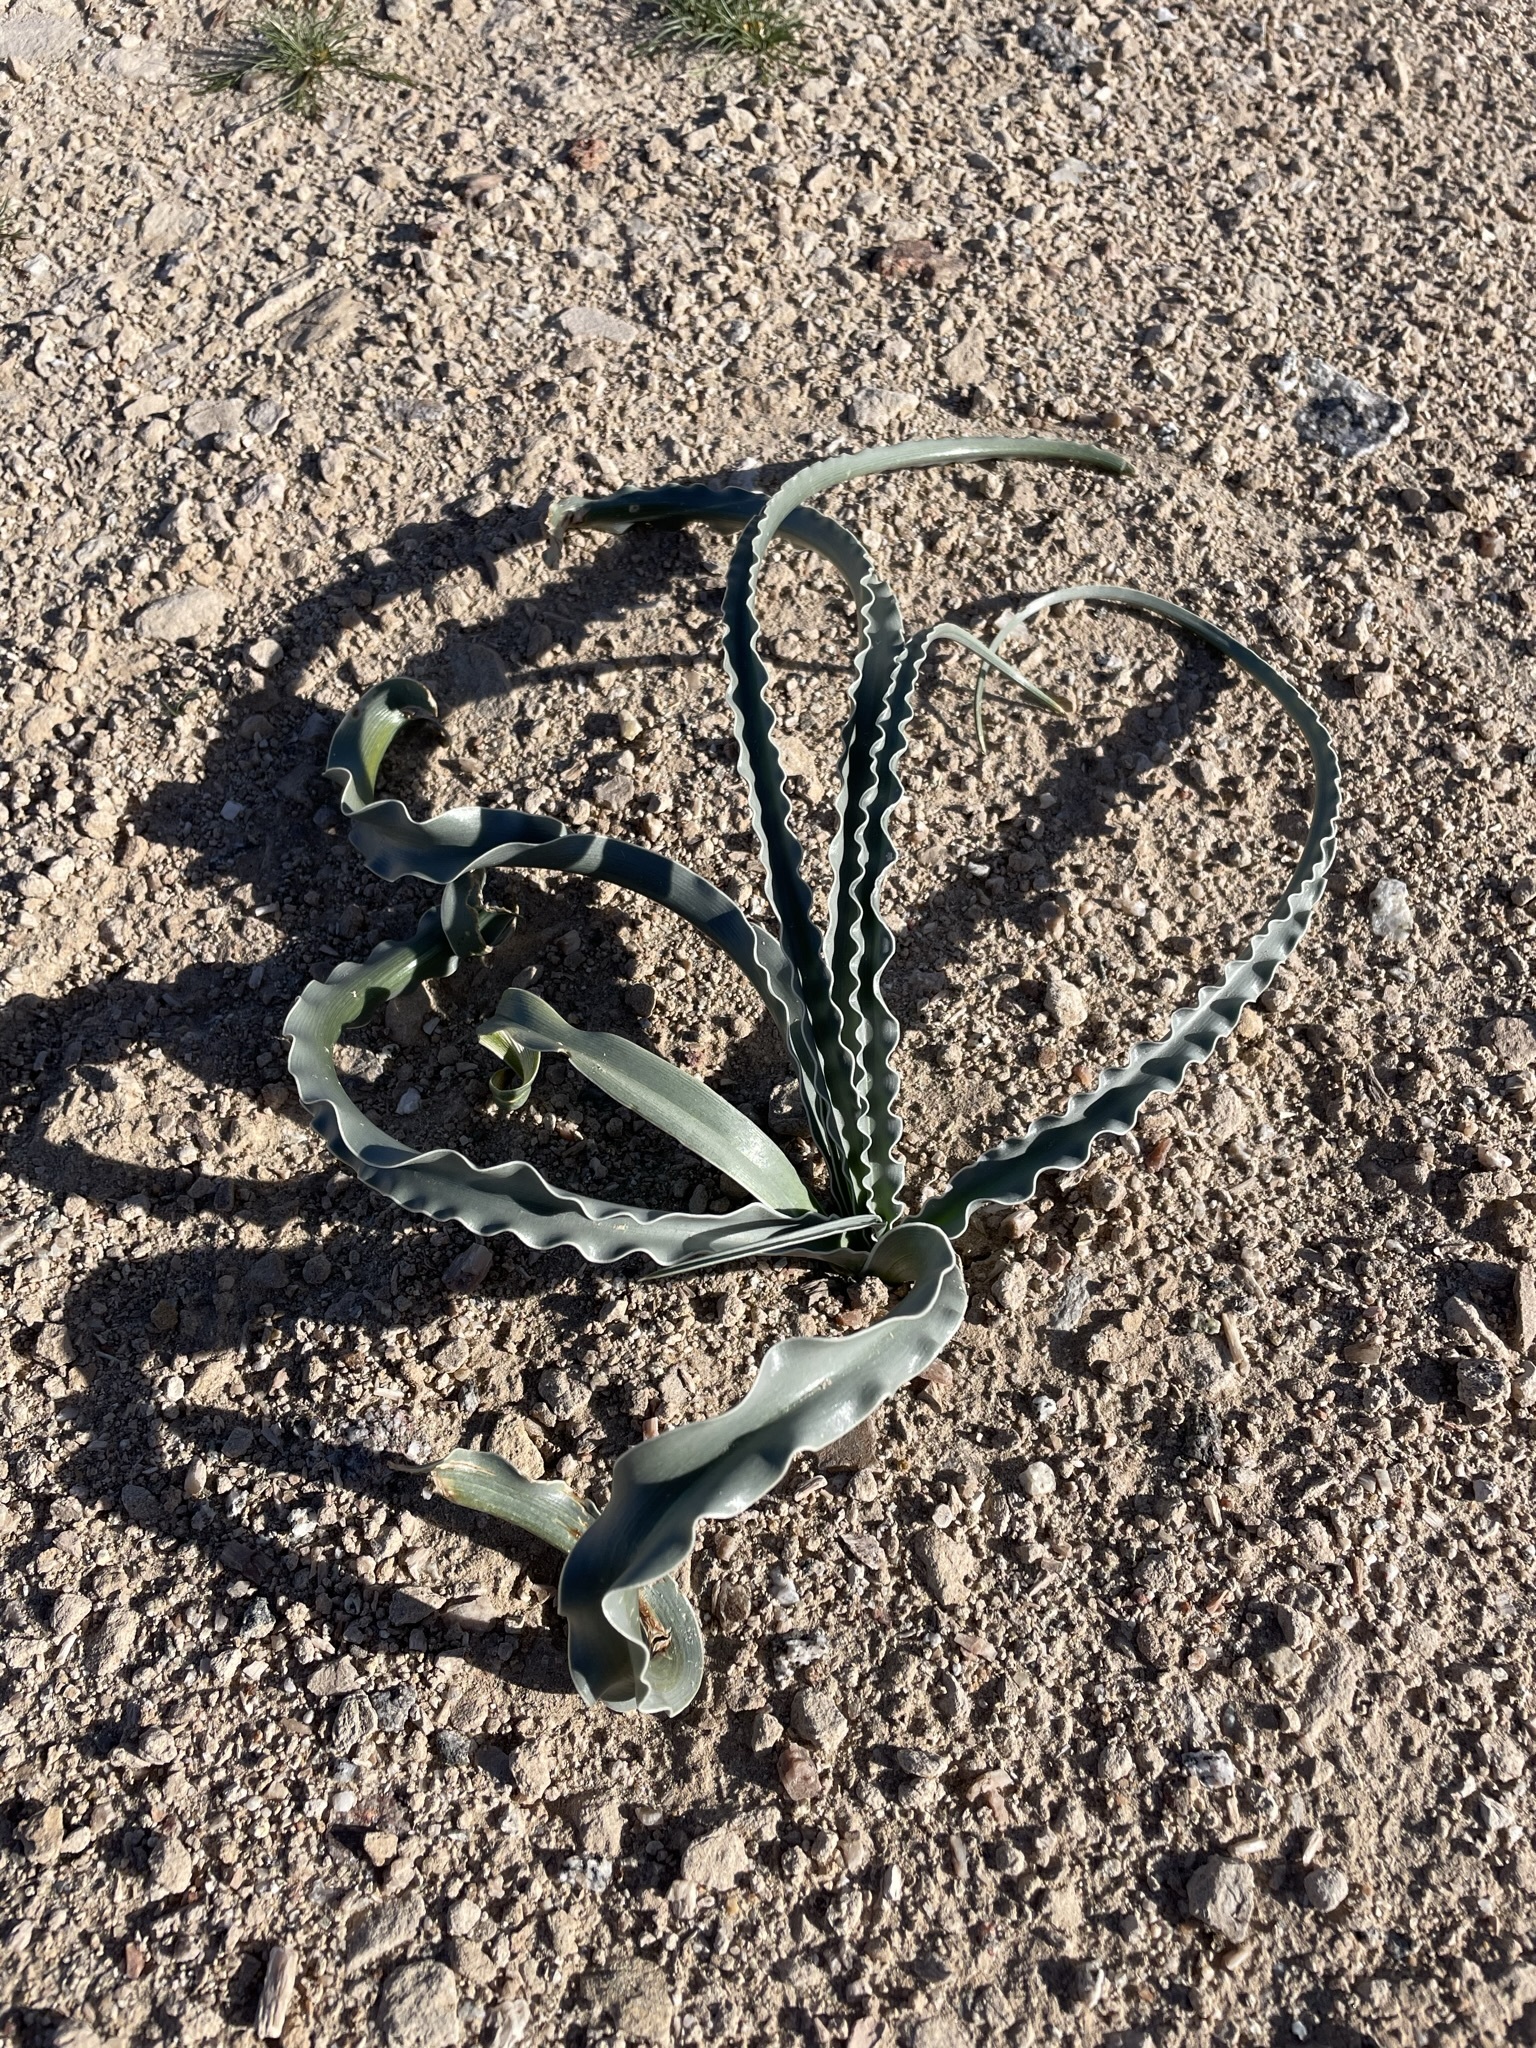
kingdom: Plantae
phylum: Tracheophyta
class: Liliopsida
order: Asparagales
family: Asparagaceae
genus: Hesperocallis
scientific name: Hesperocallis undulata
